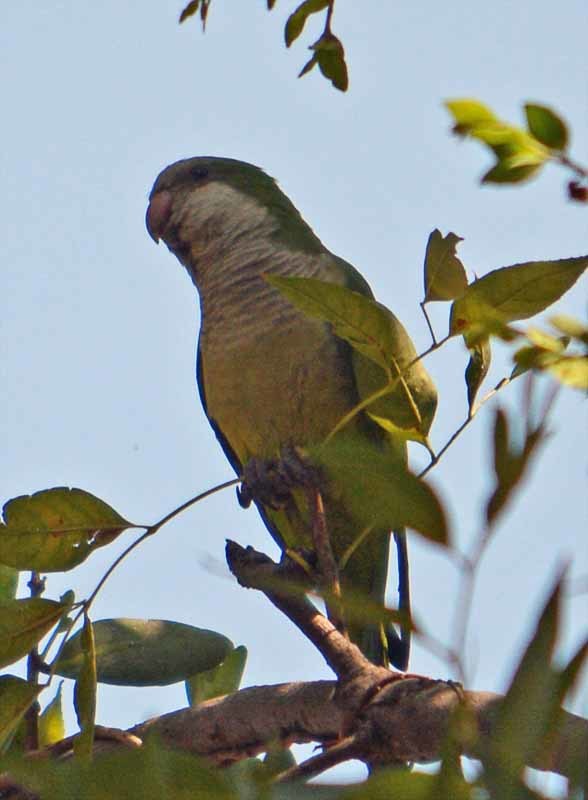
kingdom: Animalia
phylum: Chordata
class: Aves
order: Psittaciformes
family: Psittacidae
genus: Myiopsitta
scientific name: Myiopsitta monachus
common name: Monk parakeet
